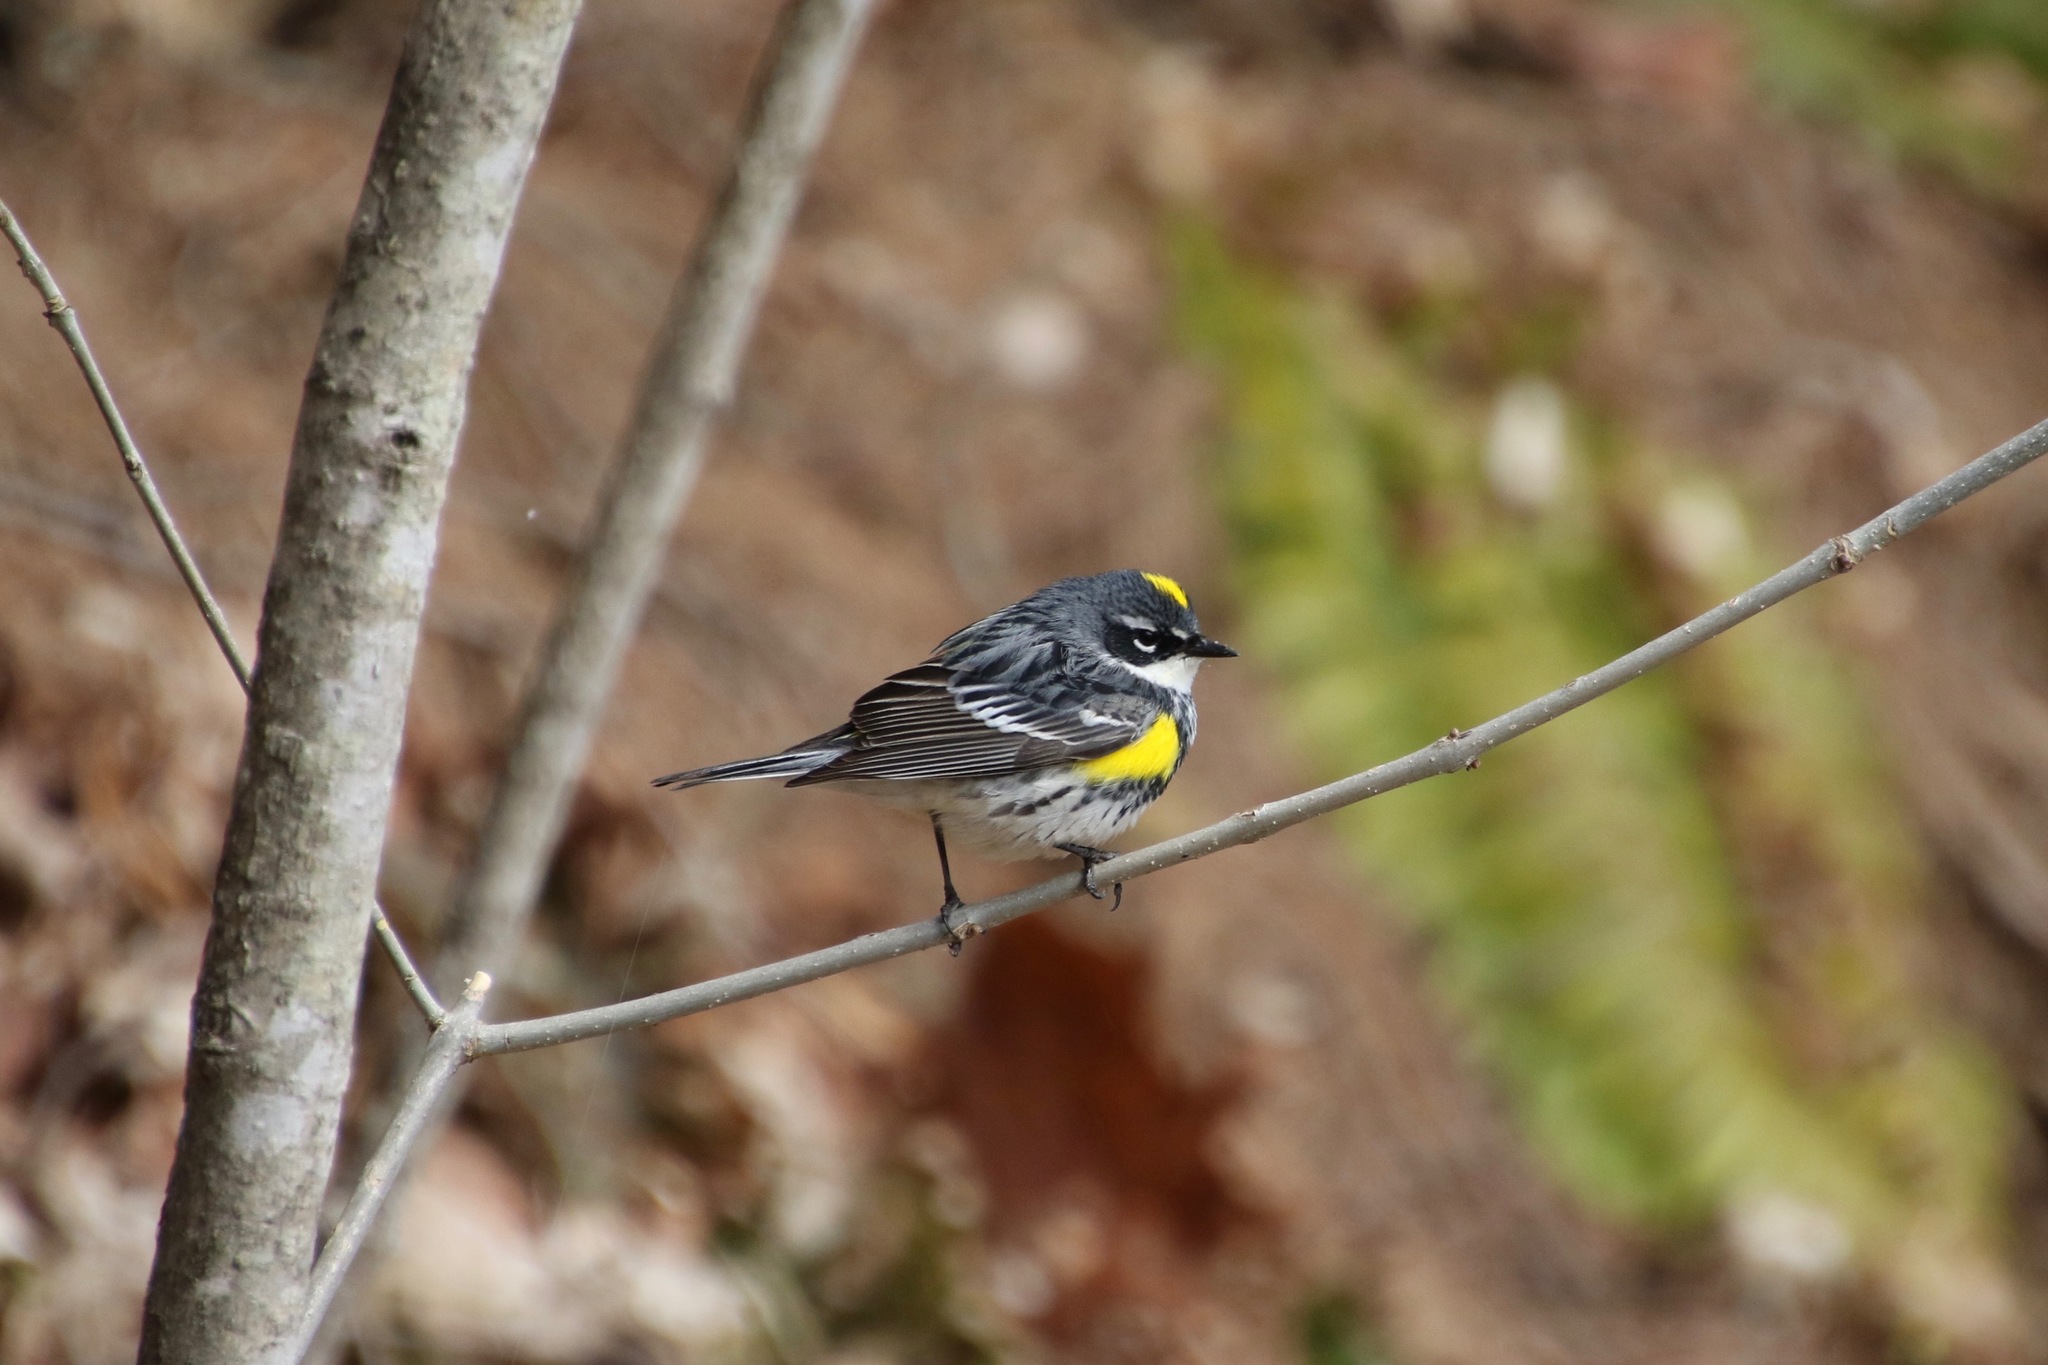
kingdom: Animalia
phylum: Chordata
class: Aves
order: Passeriformes
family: Parulidae
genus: Setophaga
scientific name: Setophaga coronata
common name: Myrtle warbler
